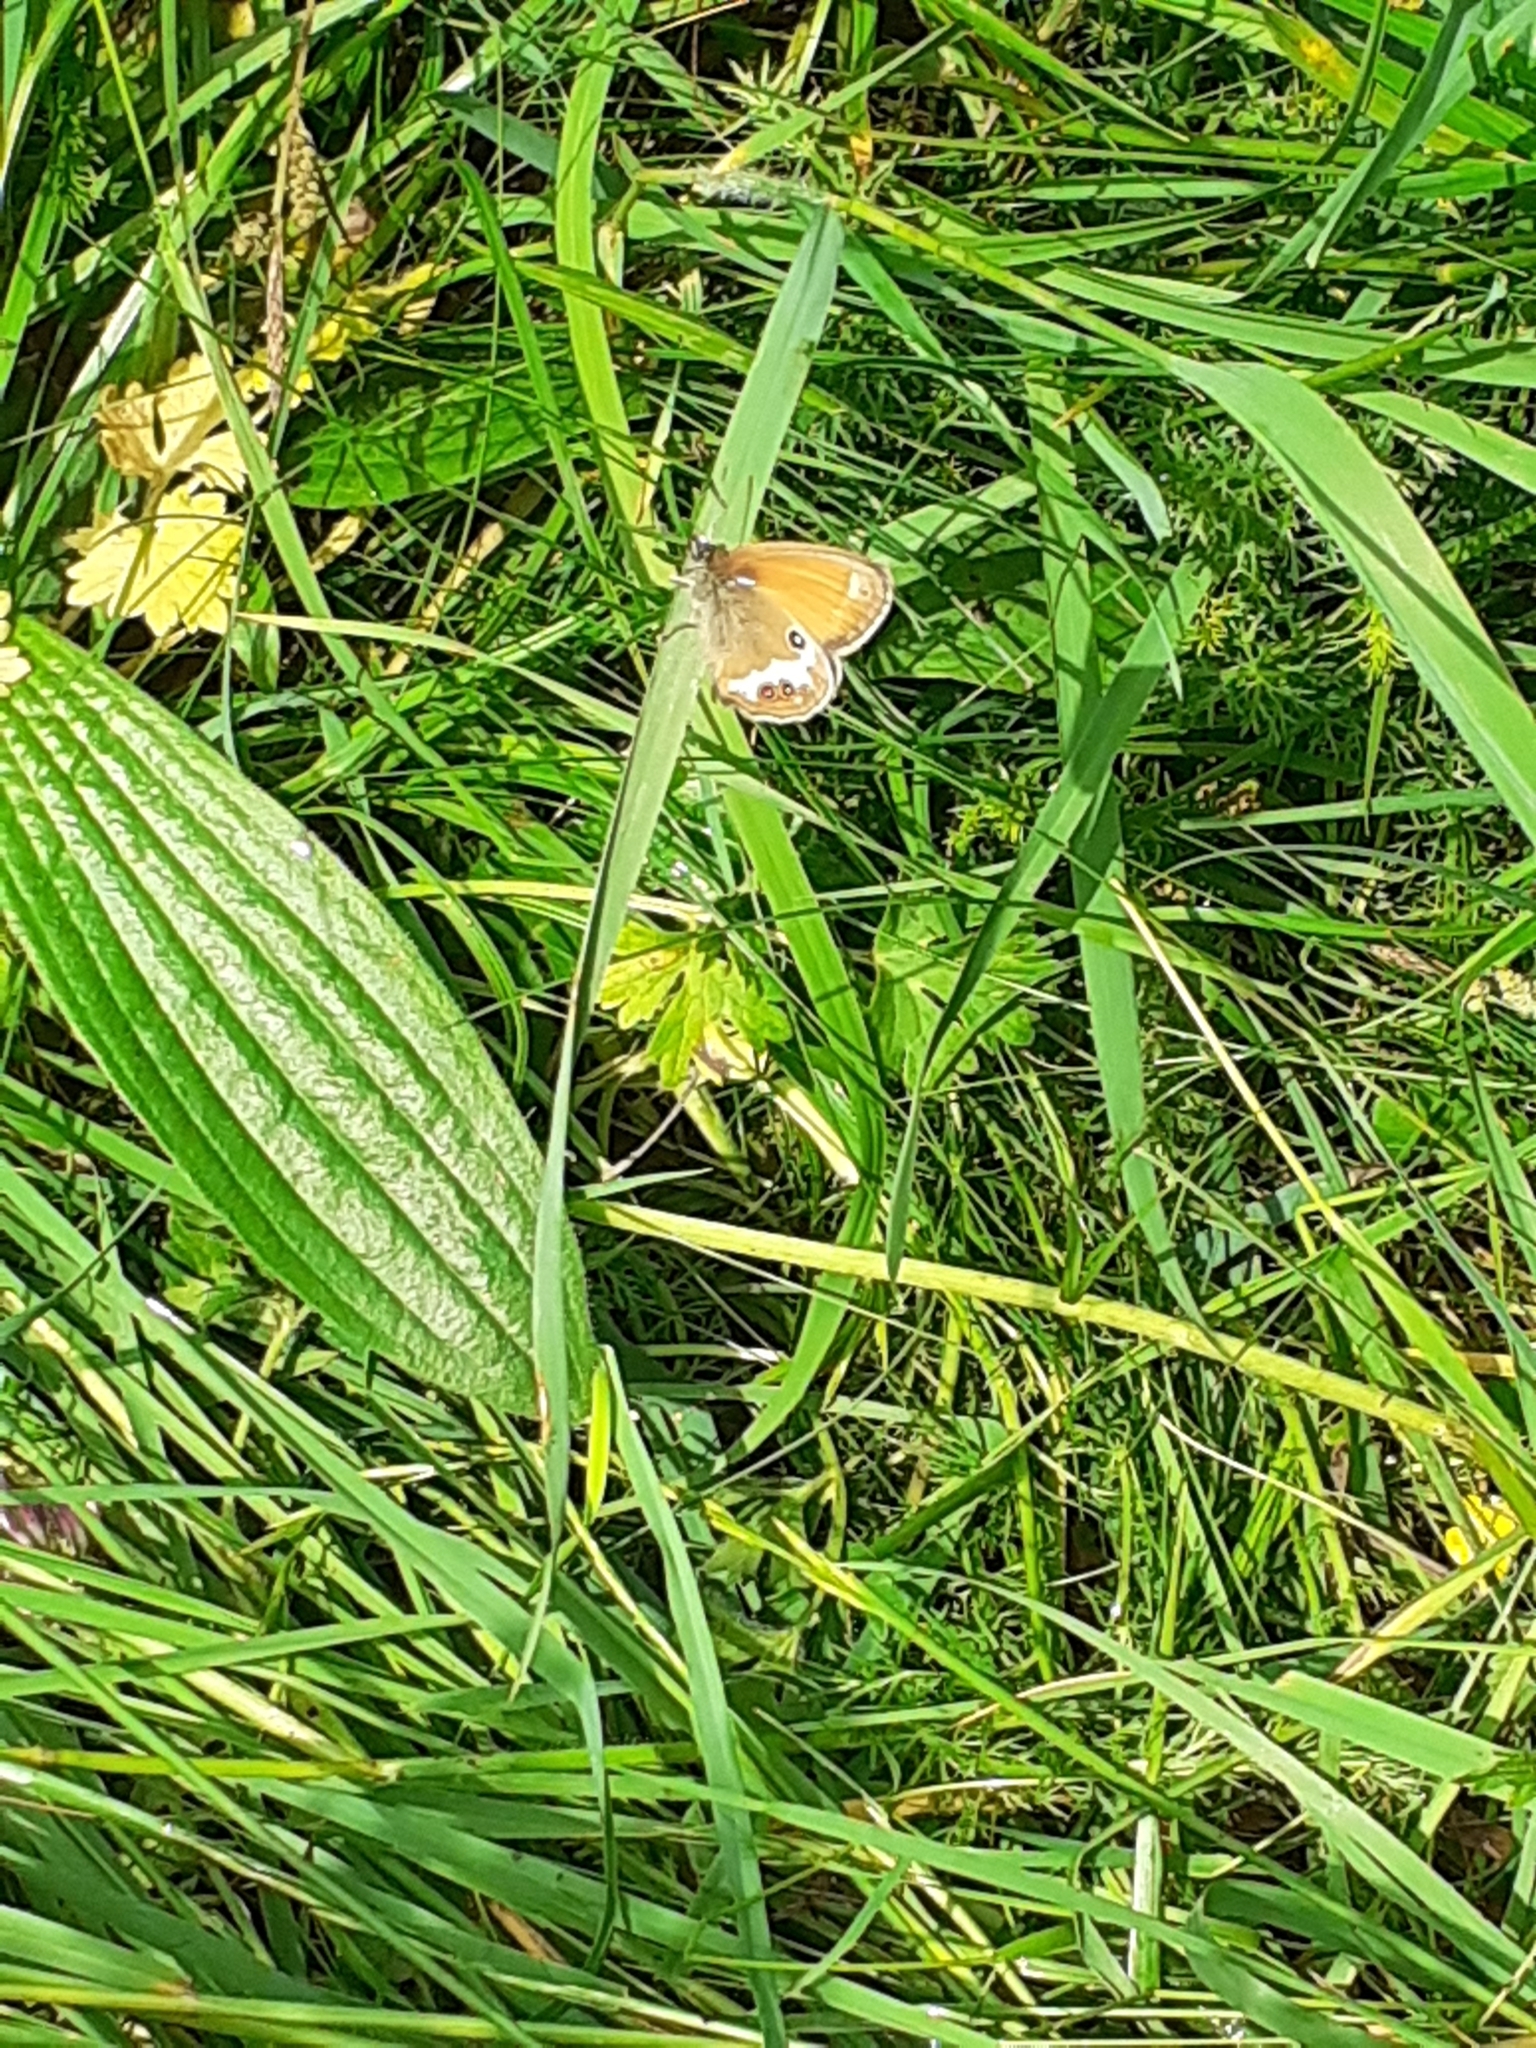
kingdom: Animalia
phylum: Arthropoda
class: Insecta
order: Lepidoptera
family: Nymphalidae
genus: Coenonympha
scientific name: Coenonympha arcania
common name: Pearly heath
